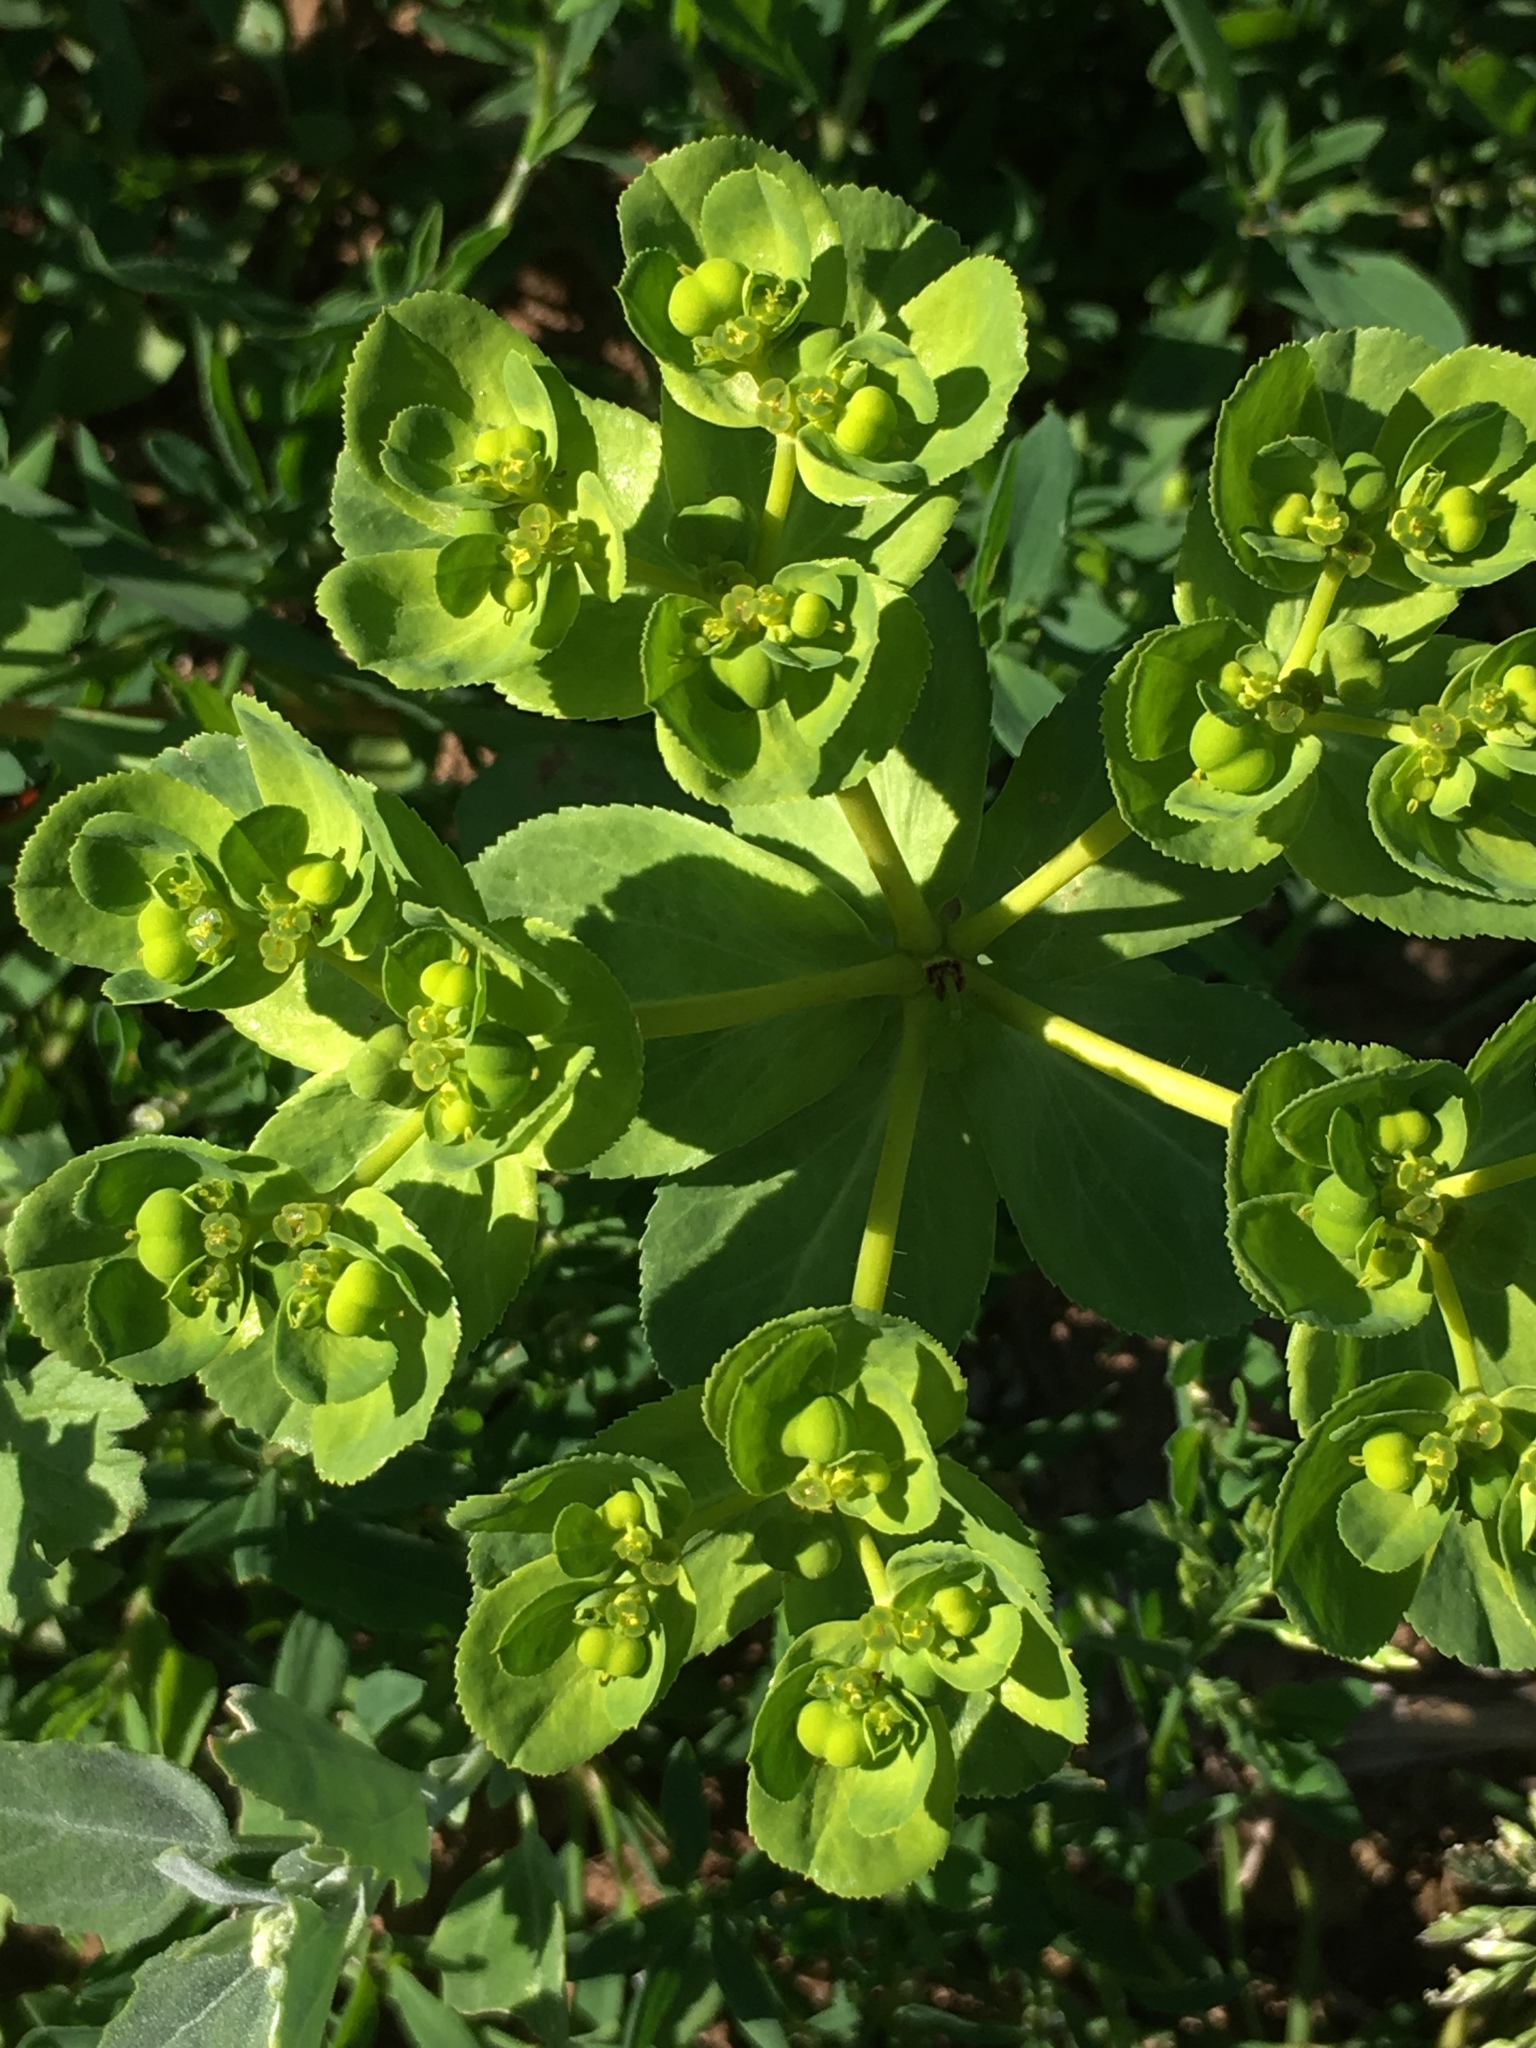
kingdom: Plantae
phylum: Tracheophyta
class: Magnoliopsida
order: Malpighiales
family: Euphorbiaceae
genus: Euphorbia
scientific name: Euphorbia helioscopia
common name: Sun spurge
